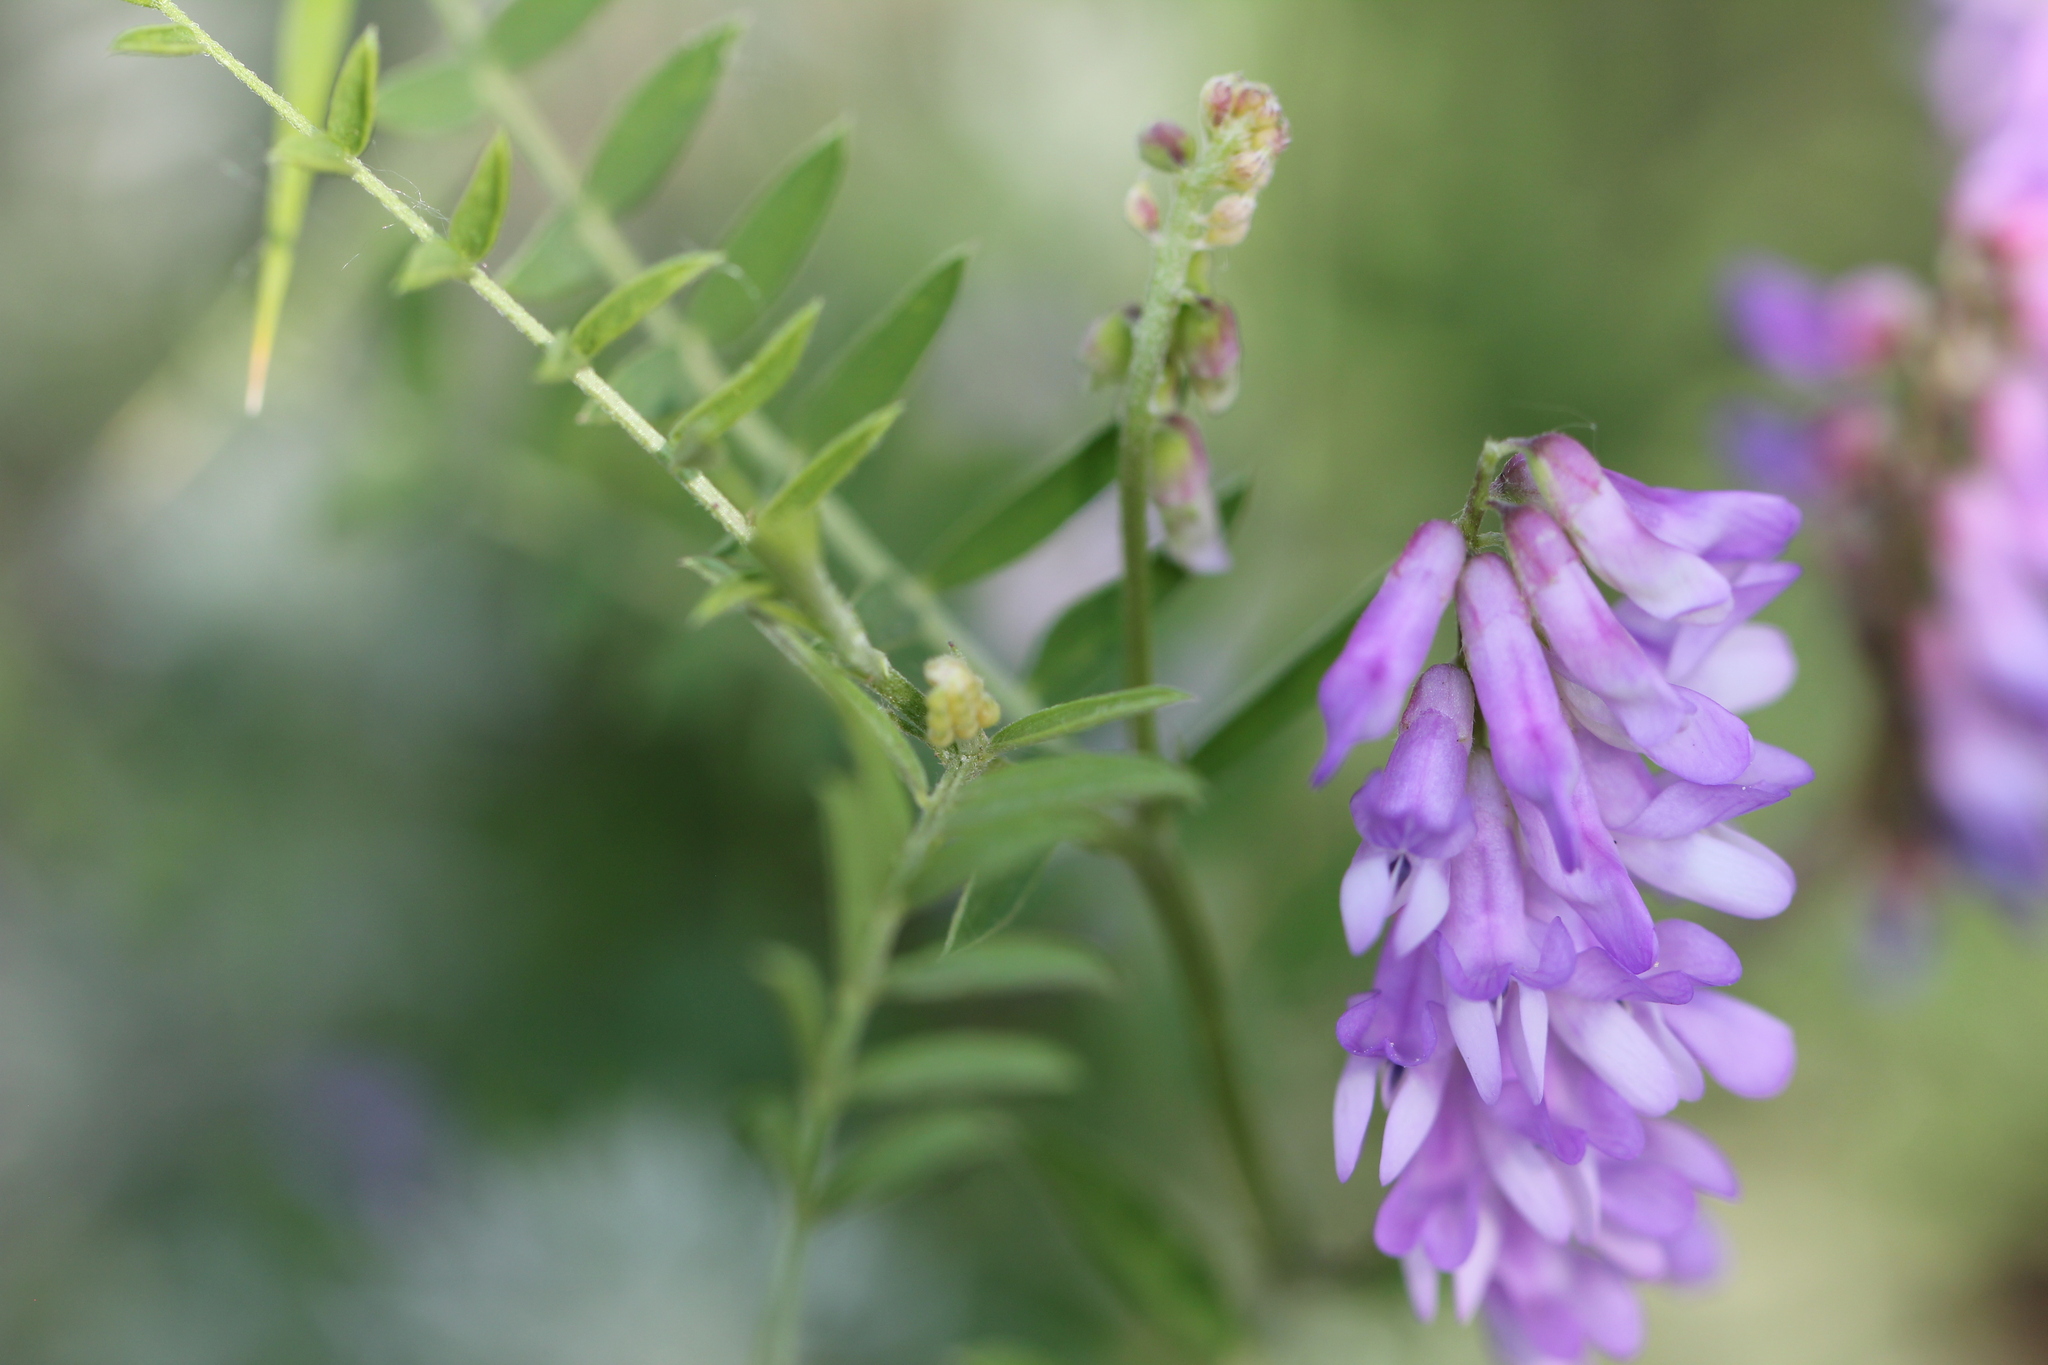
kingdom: Plantae
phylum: Tracheophyta
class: Magnoliopsida
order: Fabales
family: Fabaceae
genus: Vicia
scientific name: Vicia cracca
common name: Bird vetch
